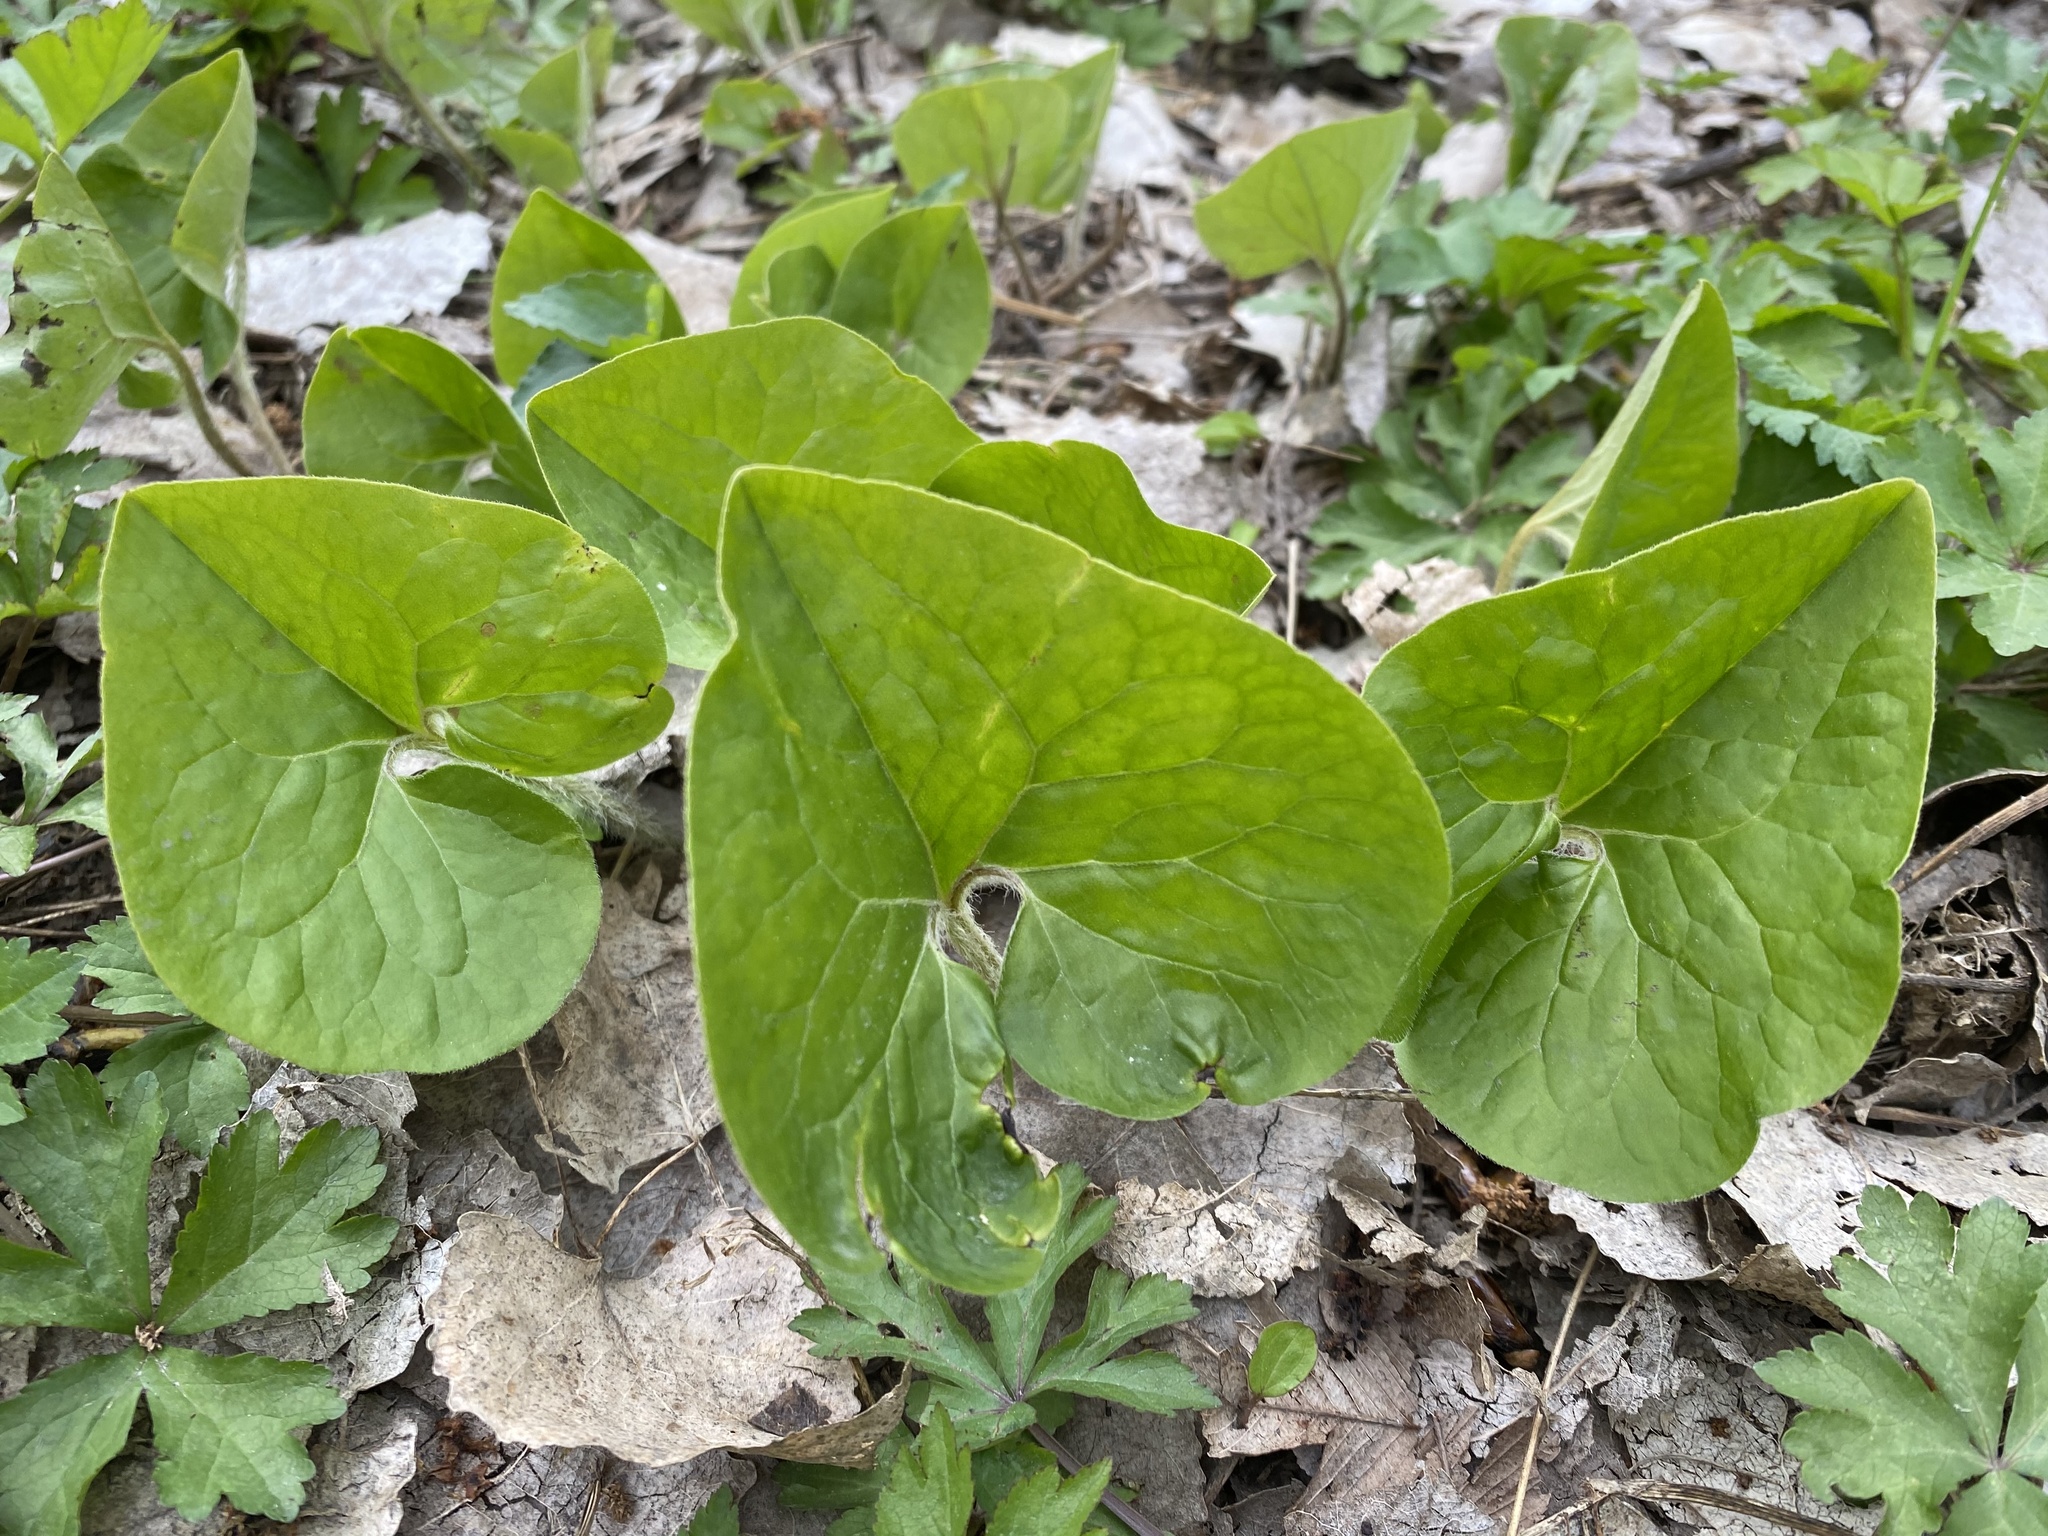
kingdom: Plantae
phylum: Tracheophyta
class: Magnoliopsida
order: Piperales
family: Aristolochiaceae
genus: Asarum
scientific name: Asarum canadense
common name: Wild ginger
